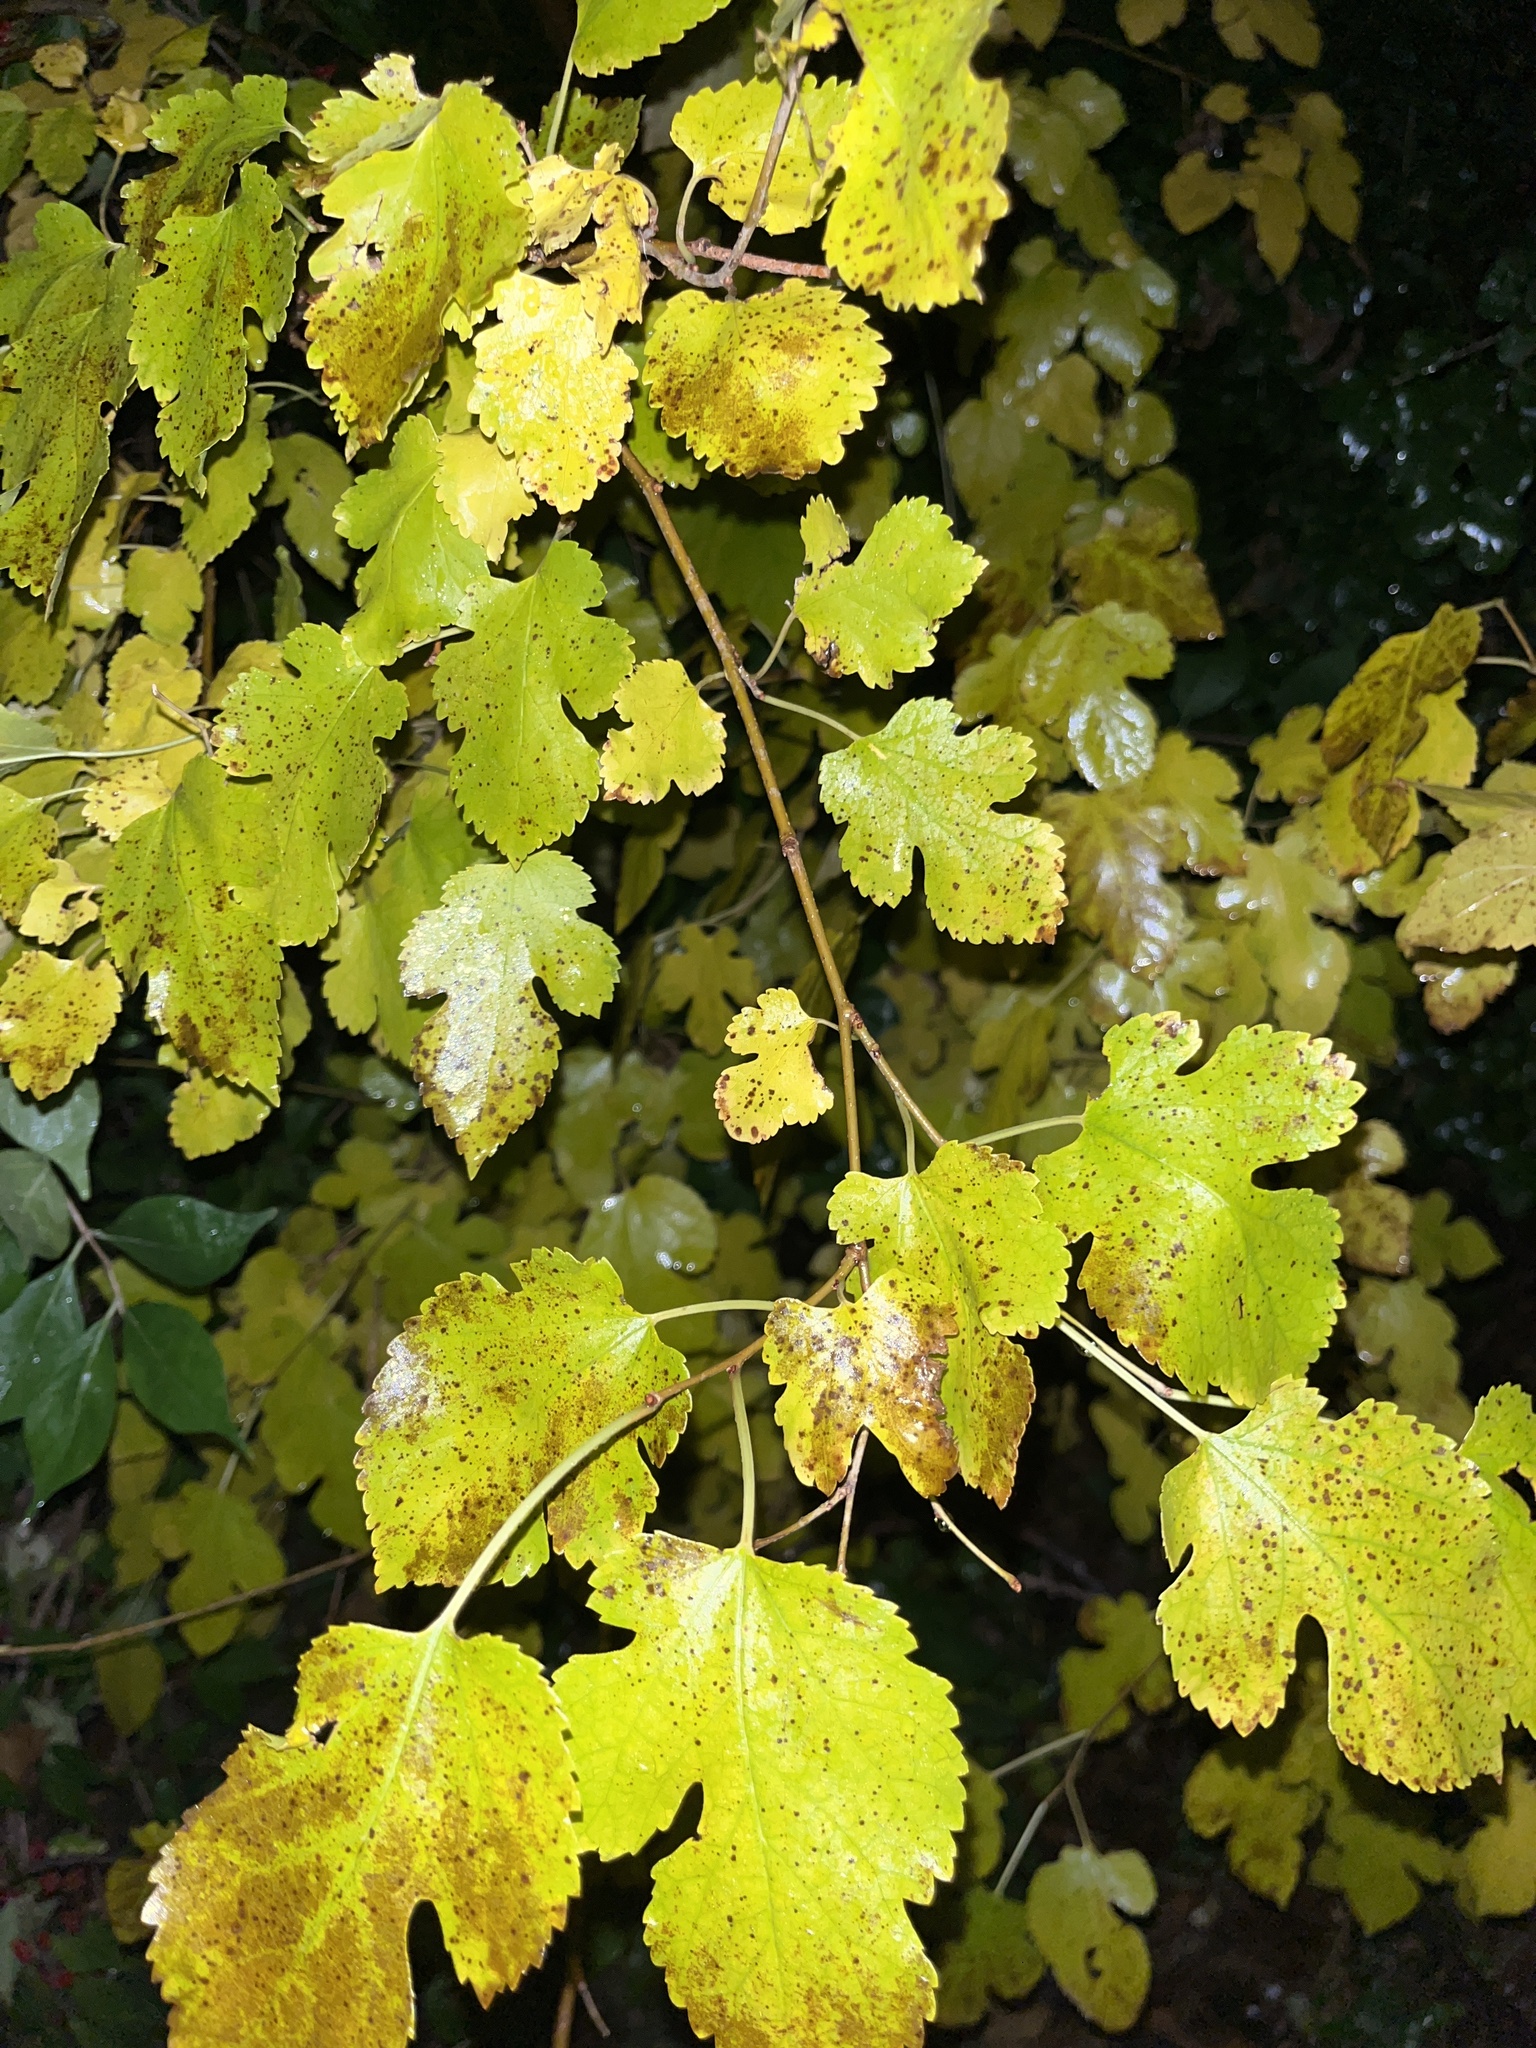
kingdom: Plantae
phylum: Tracheophyta
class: Magnoliopsida
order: Rosales
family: Moraceae
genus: Morus
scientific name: Morus alba
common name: White mulberry
